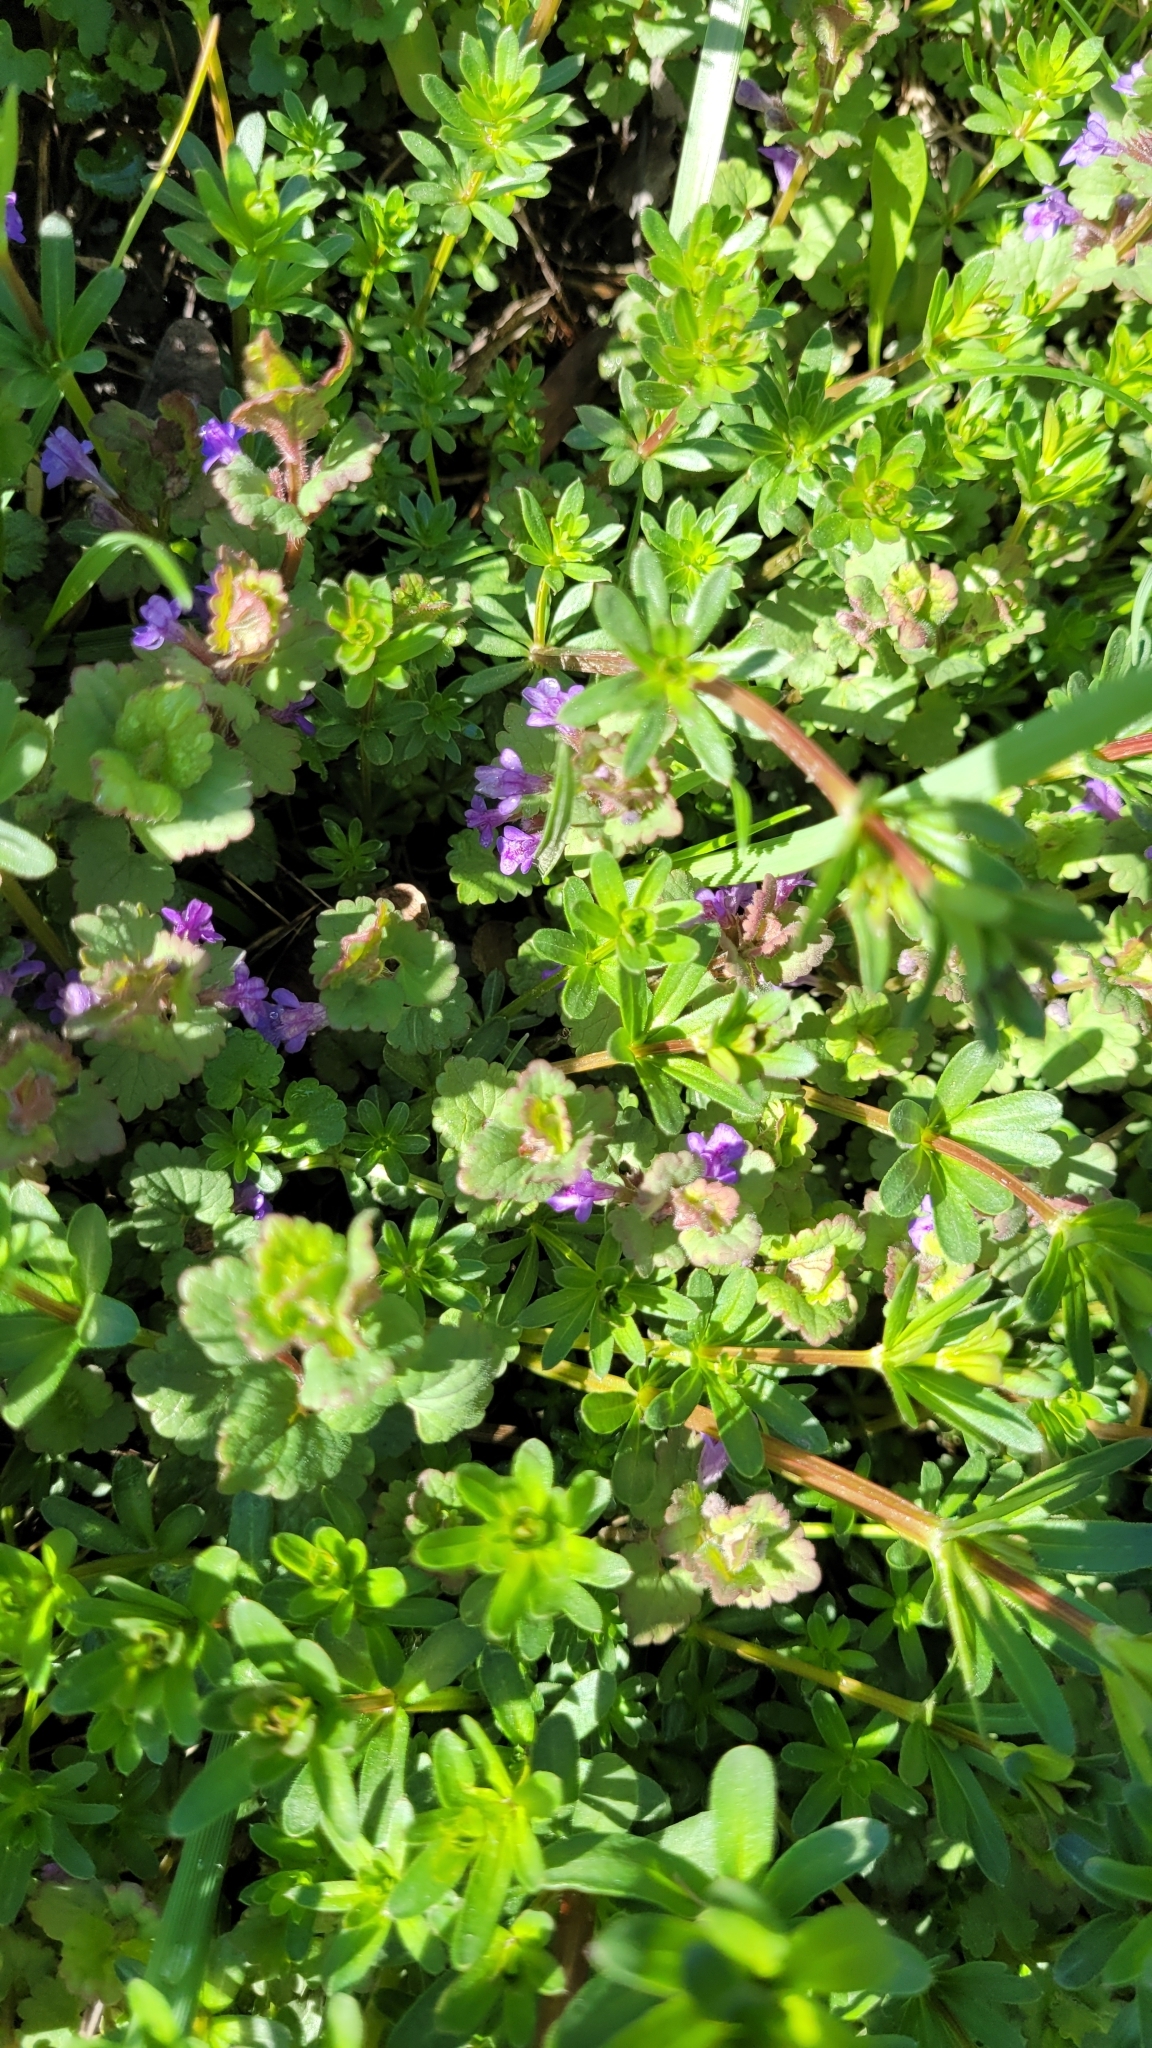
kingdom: Plantae
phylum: Tracheophyta
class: Magnoliopsida
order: Lamiales
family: Lamiaceae
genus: Glechoma
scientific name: Glechoma hederacea
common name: Ground ivy
